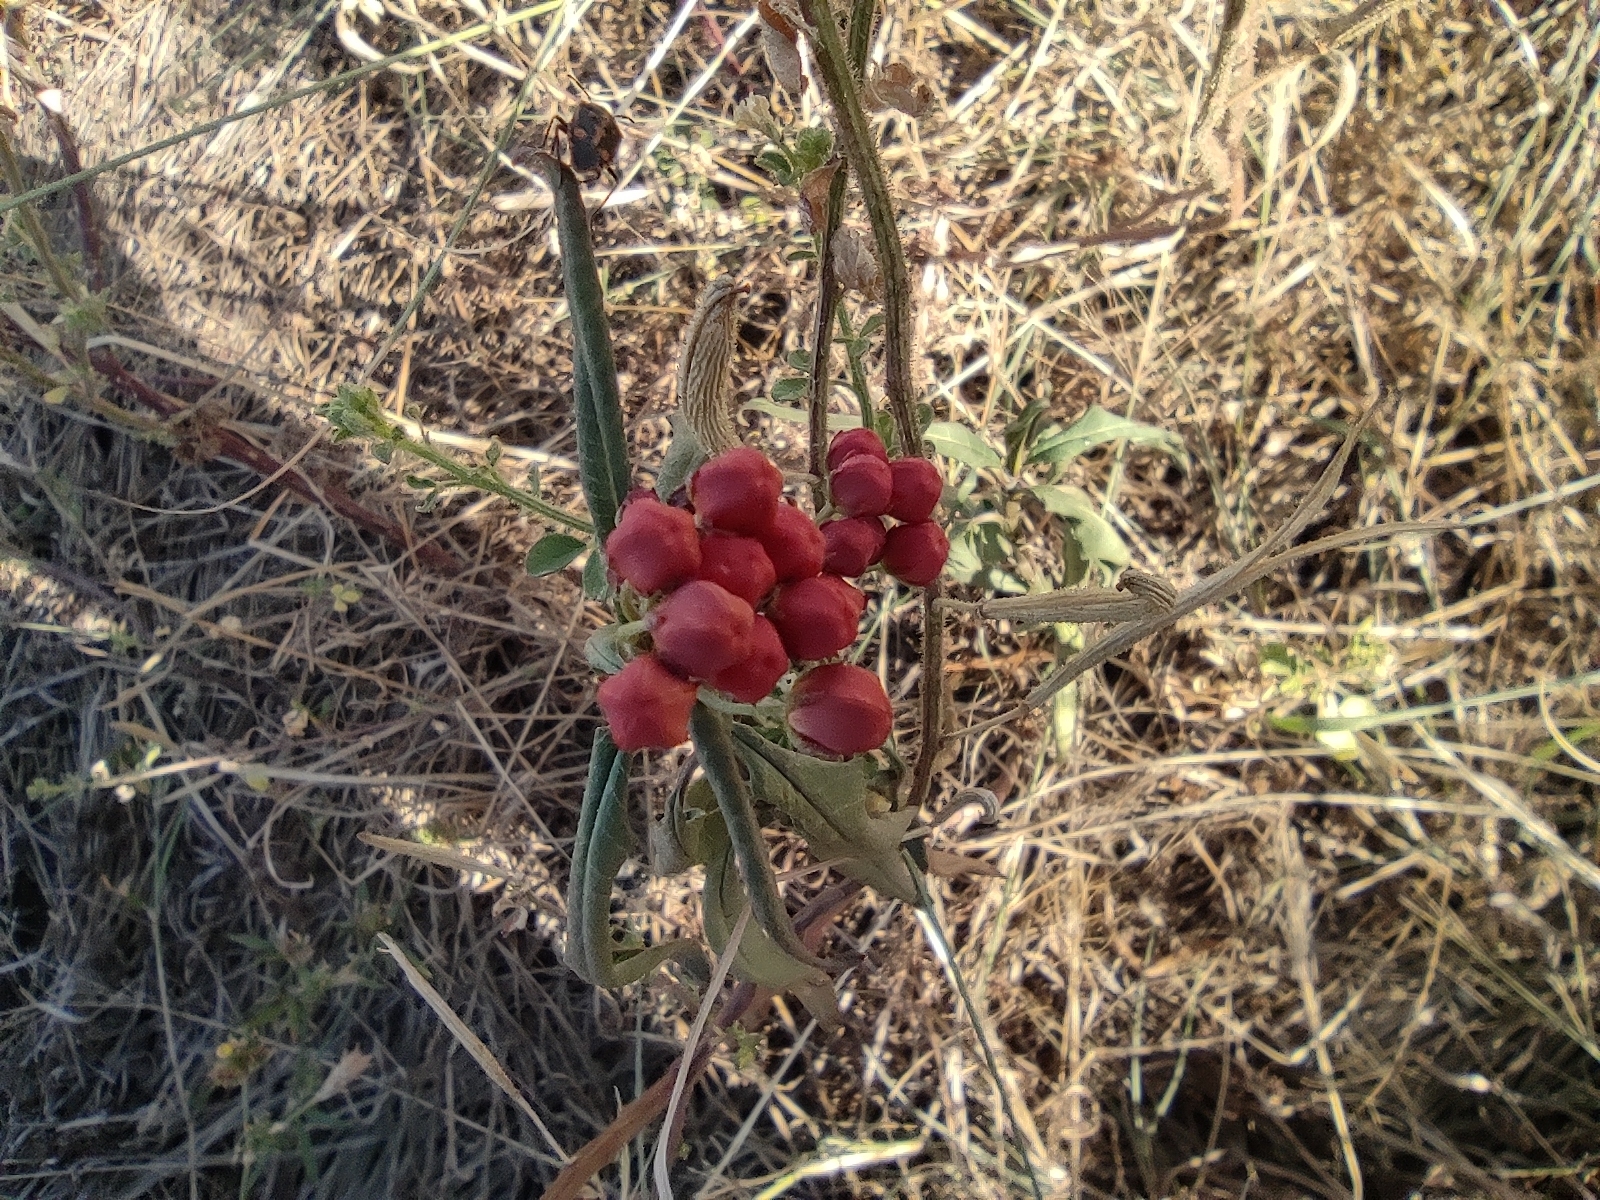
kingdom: Plantae
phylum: Tracheophyta
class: Magnoliopsida
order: Gentianales
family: Apocynaceae
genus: Asclepias
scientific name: Asclepias curassavica
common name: Bloodflower
